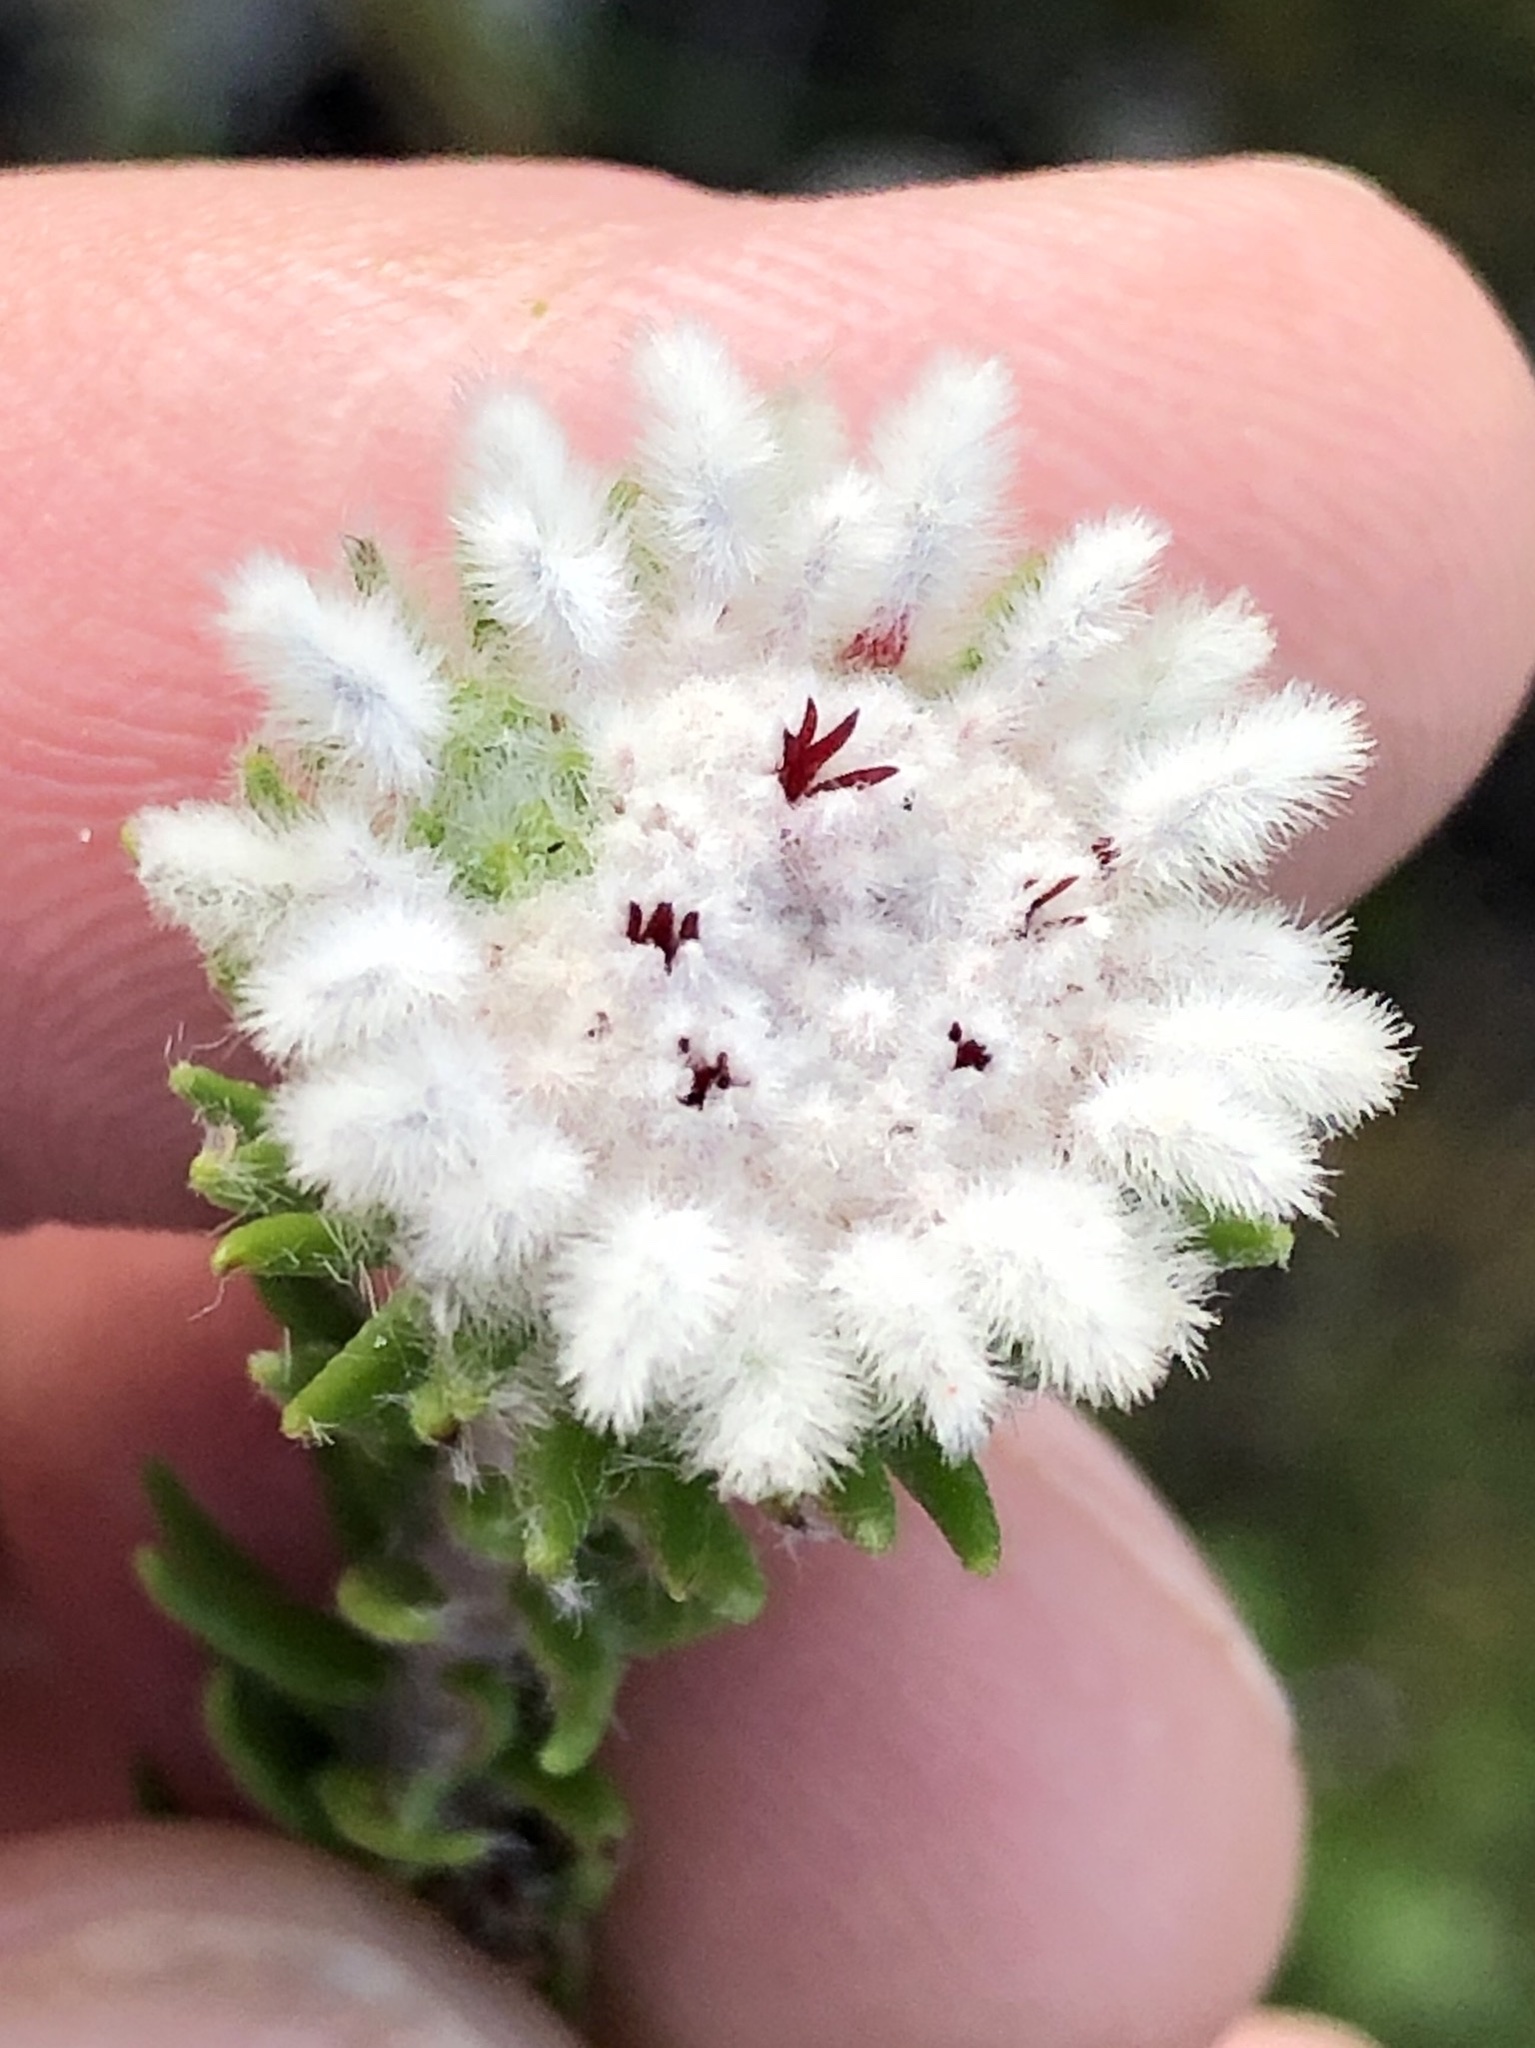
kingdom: Plantae
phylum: Tracheophyta
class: Magnoliopsida
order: Rosales
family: Rhamnaceae
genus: Phylica
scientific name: Phylica curvifolia
